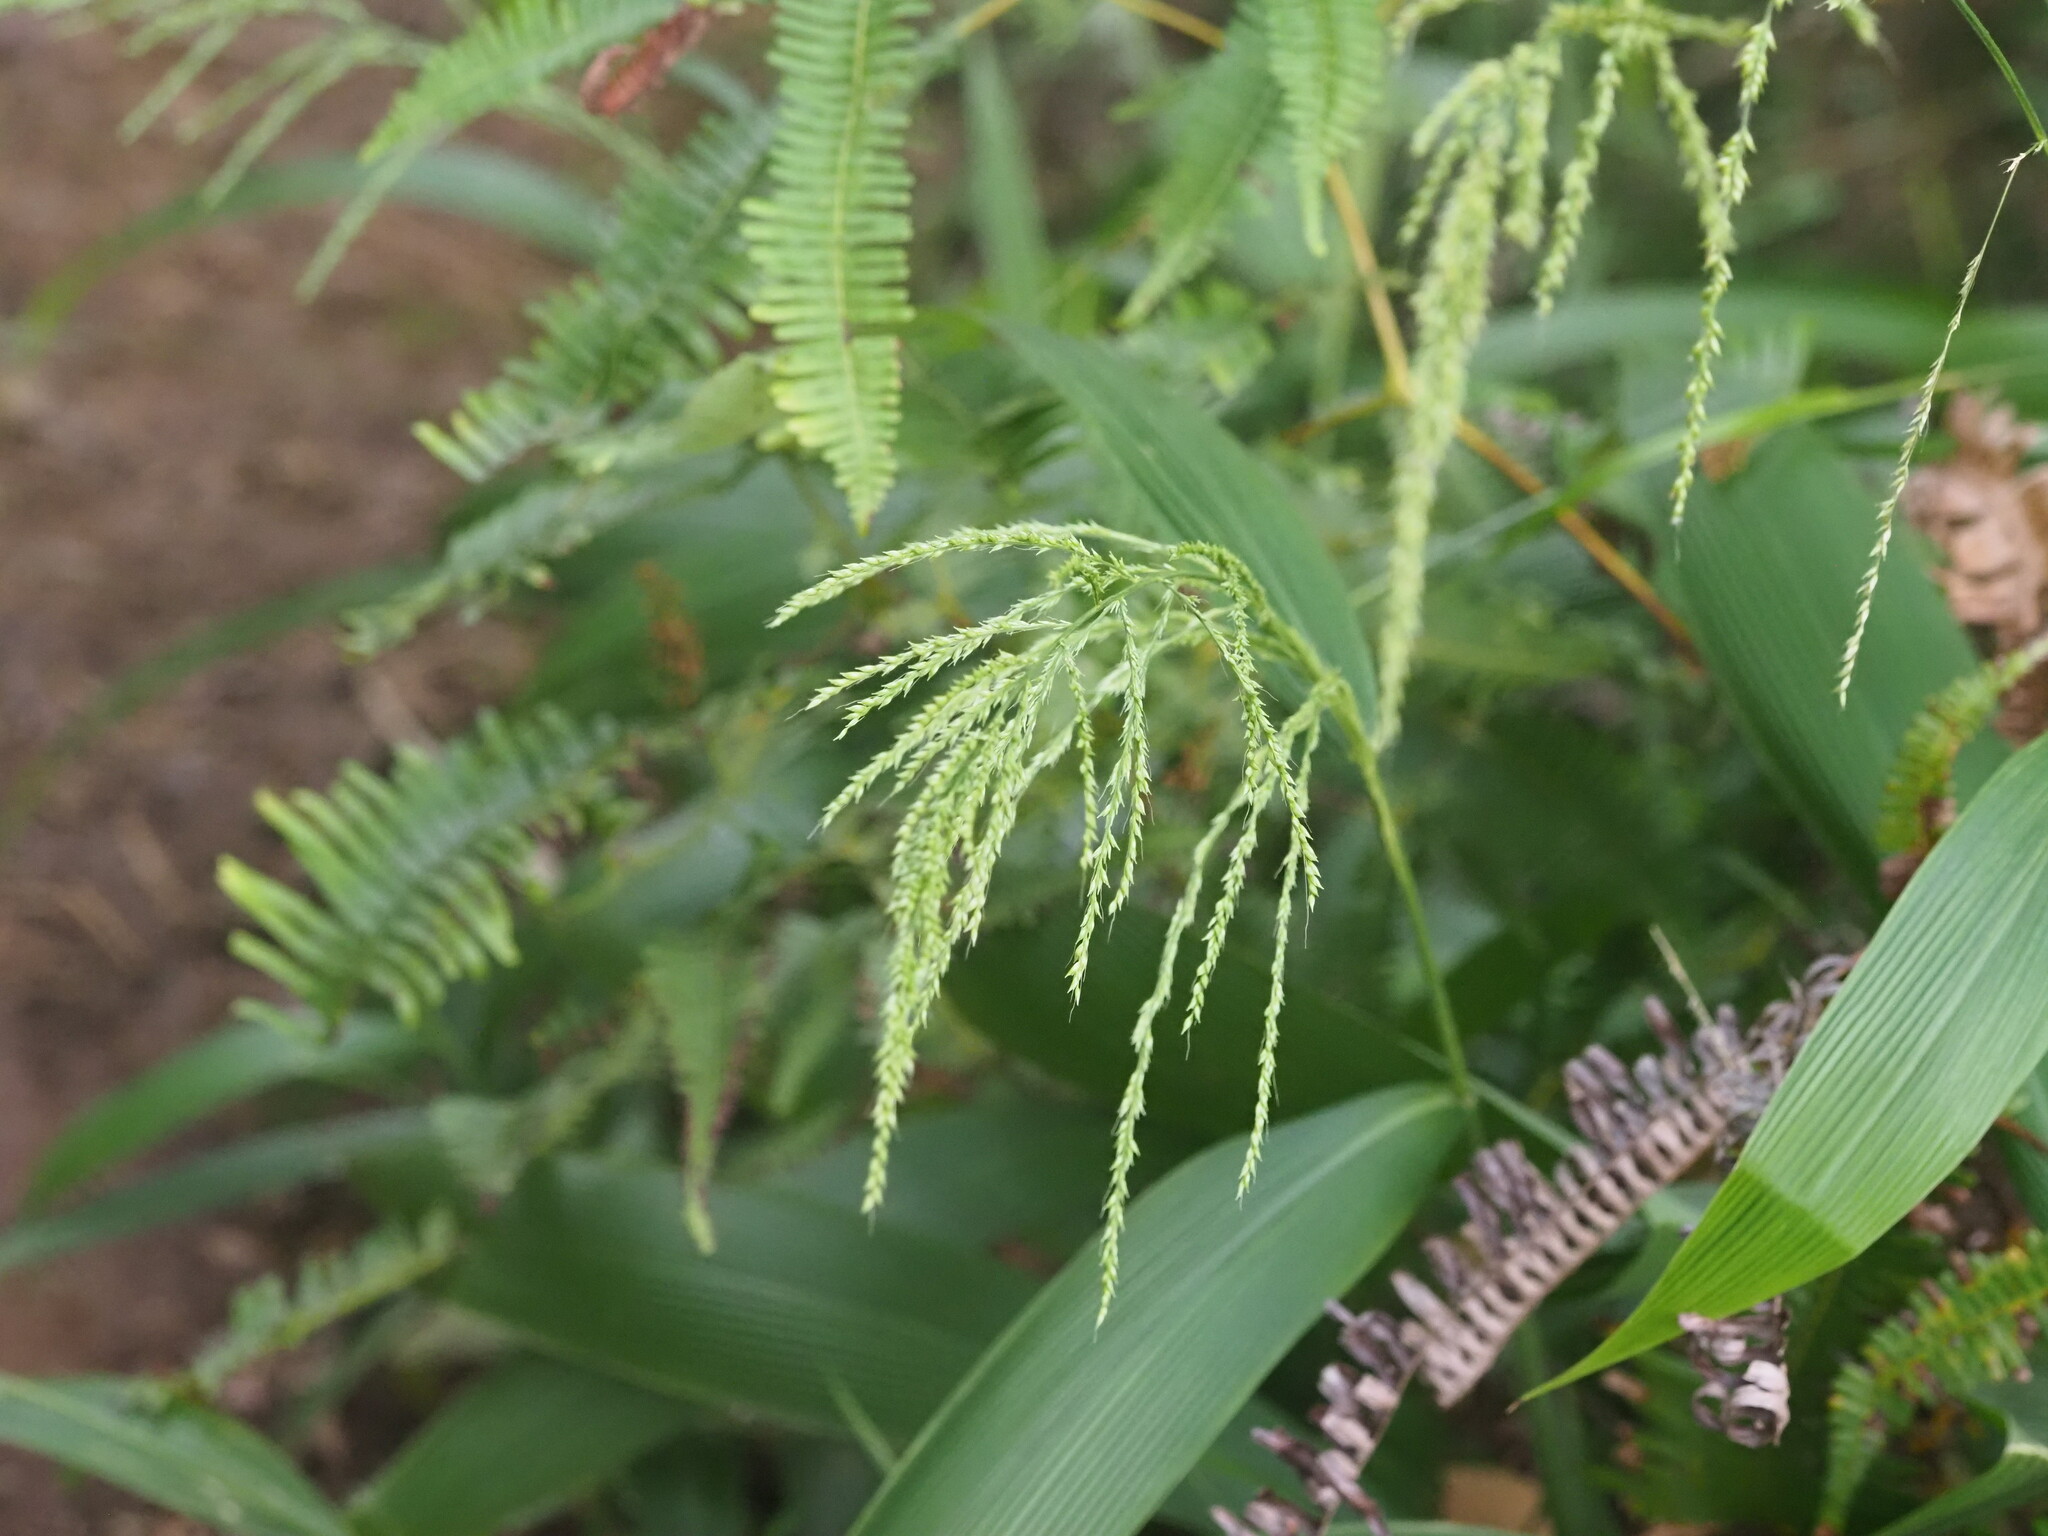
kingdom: Plantae
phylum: Tracheophyta
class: Liliopsida
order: Poales
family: Poaceae
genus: Setaria
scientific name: Setaria palmifolia
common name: Broadleaved bristlegrass
